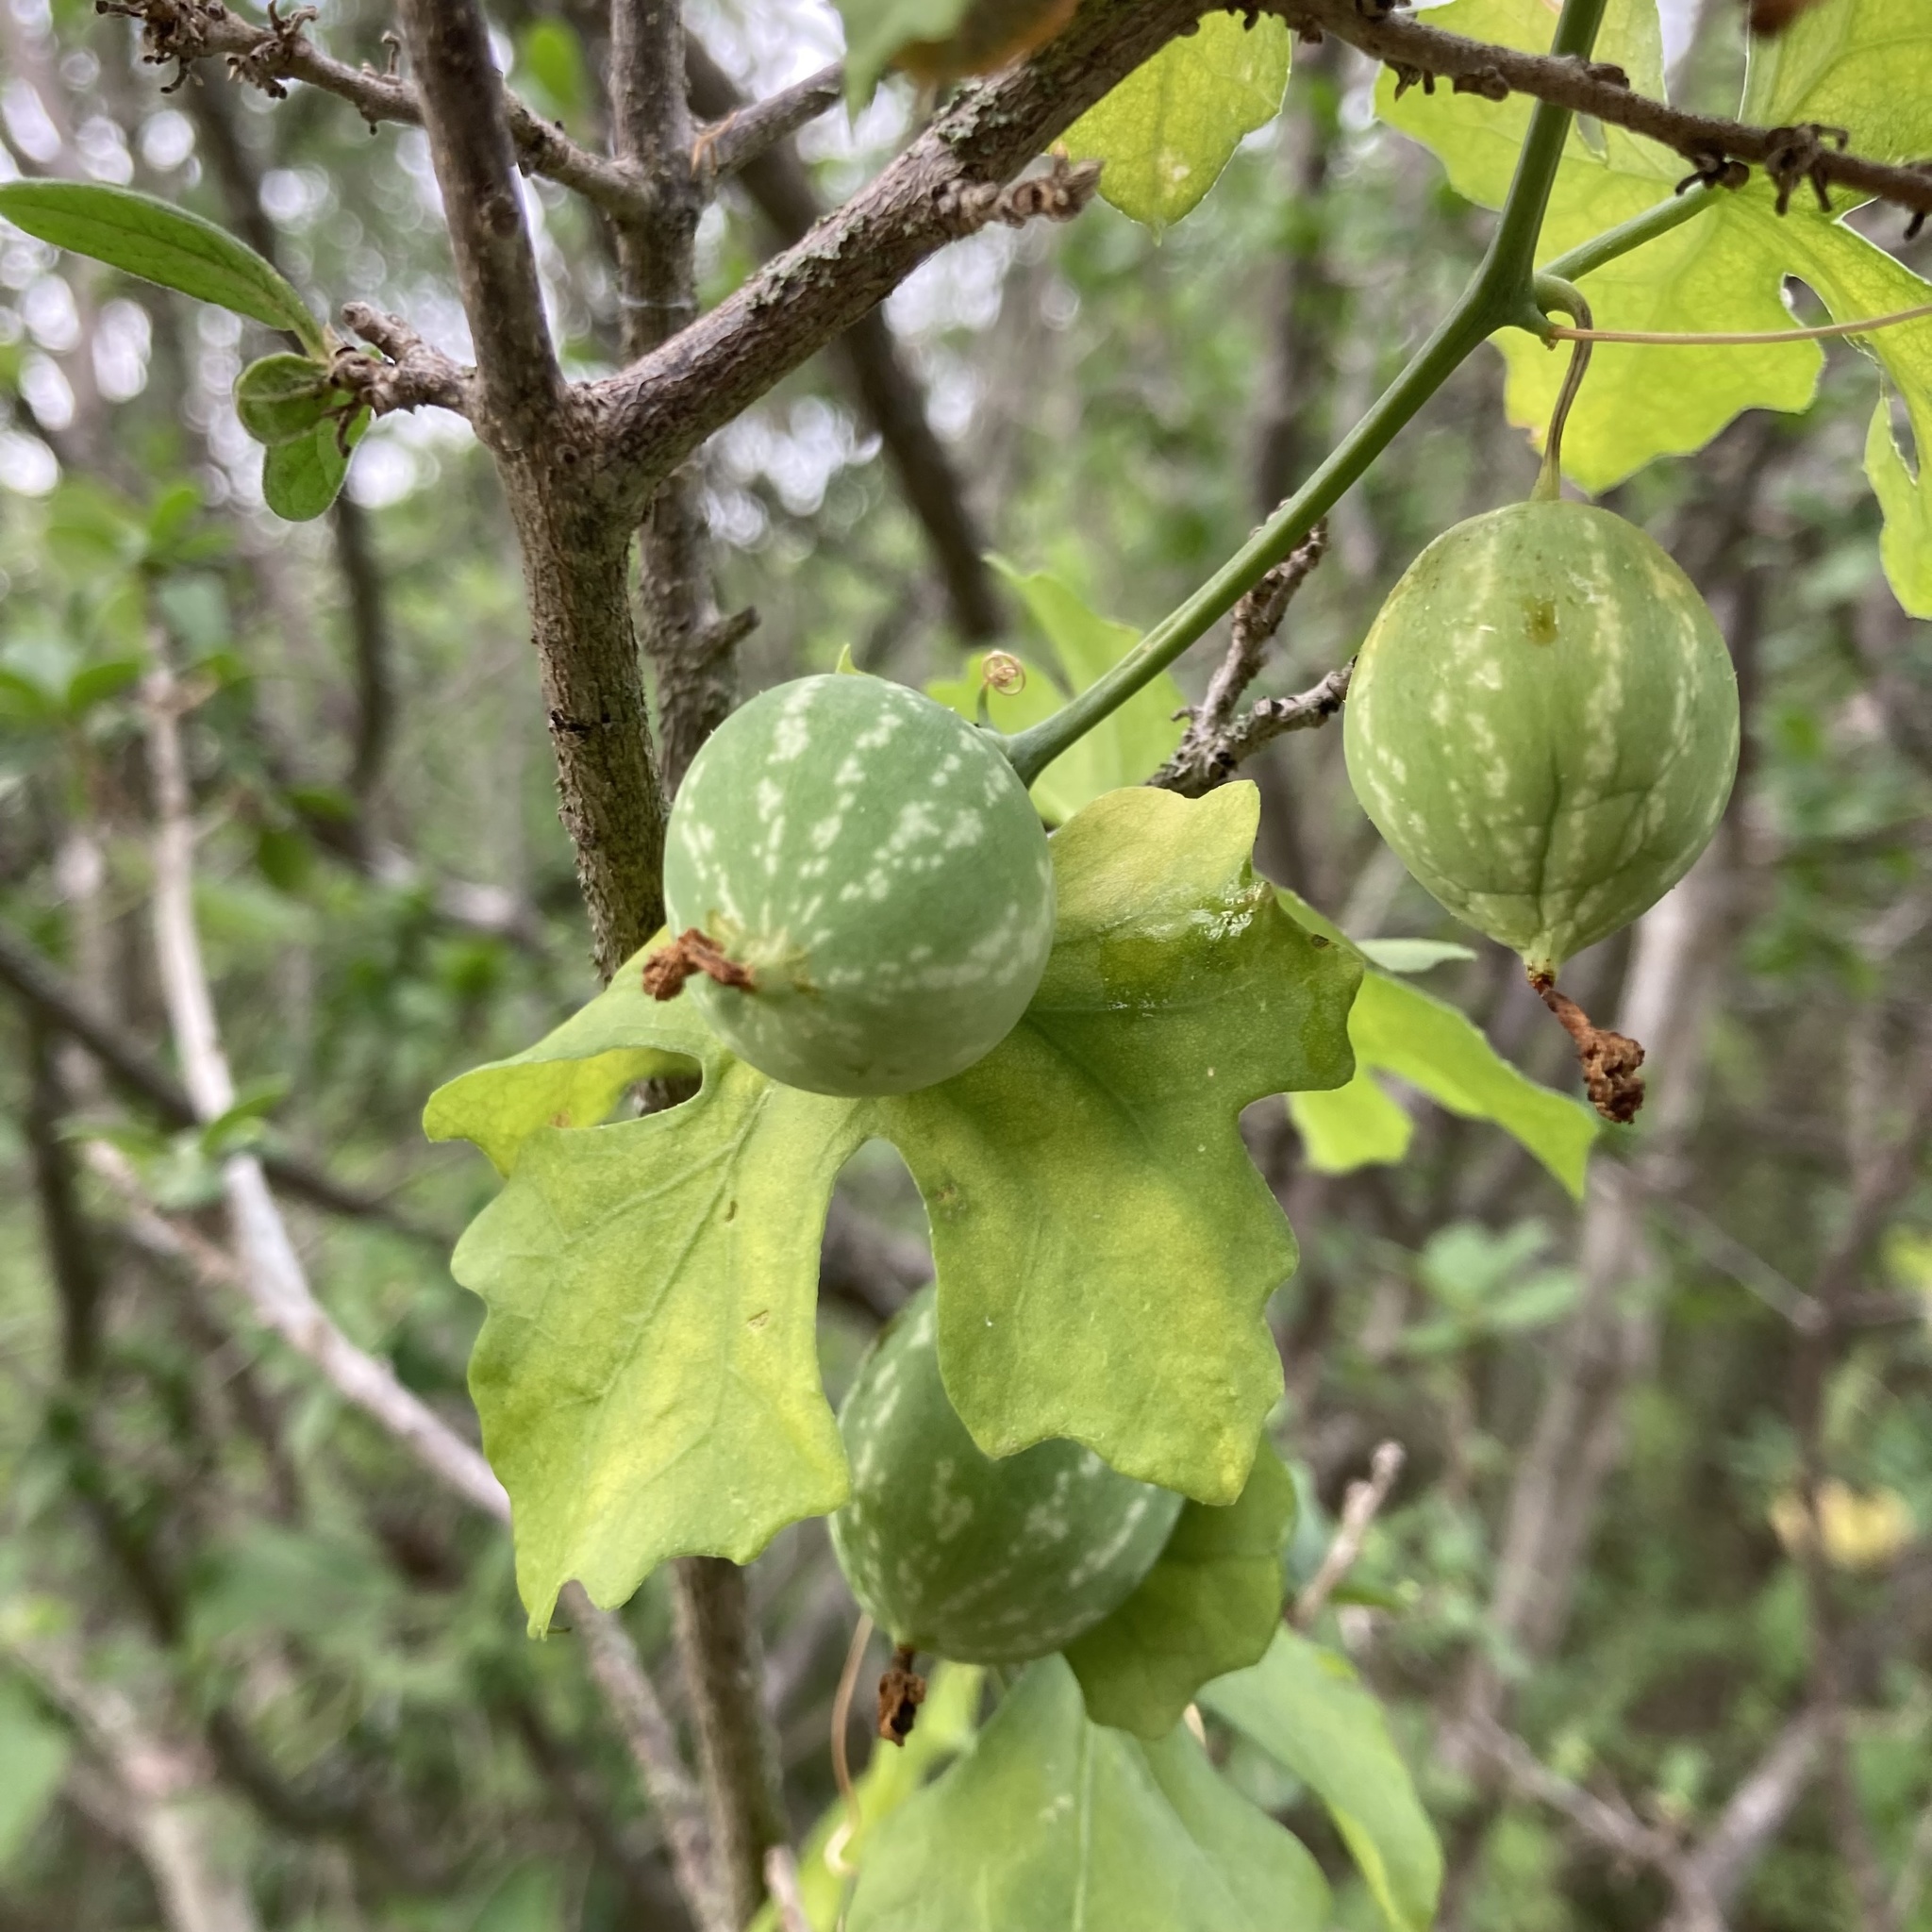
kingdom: Plantae
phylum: Tracheophyta
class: Magnoliopsida
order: Cucurbitales
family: Cucurbitaceae
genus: Ibervillea
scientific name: Ibervillea lindheimeri
